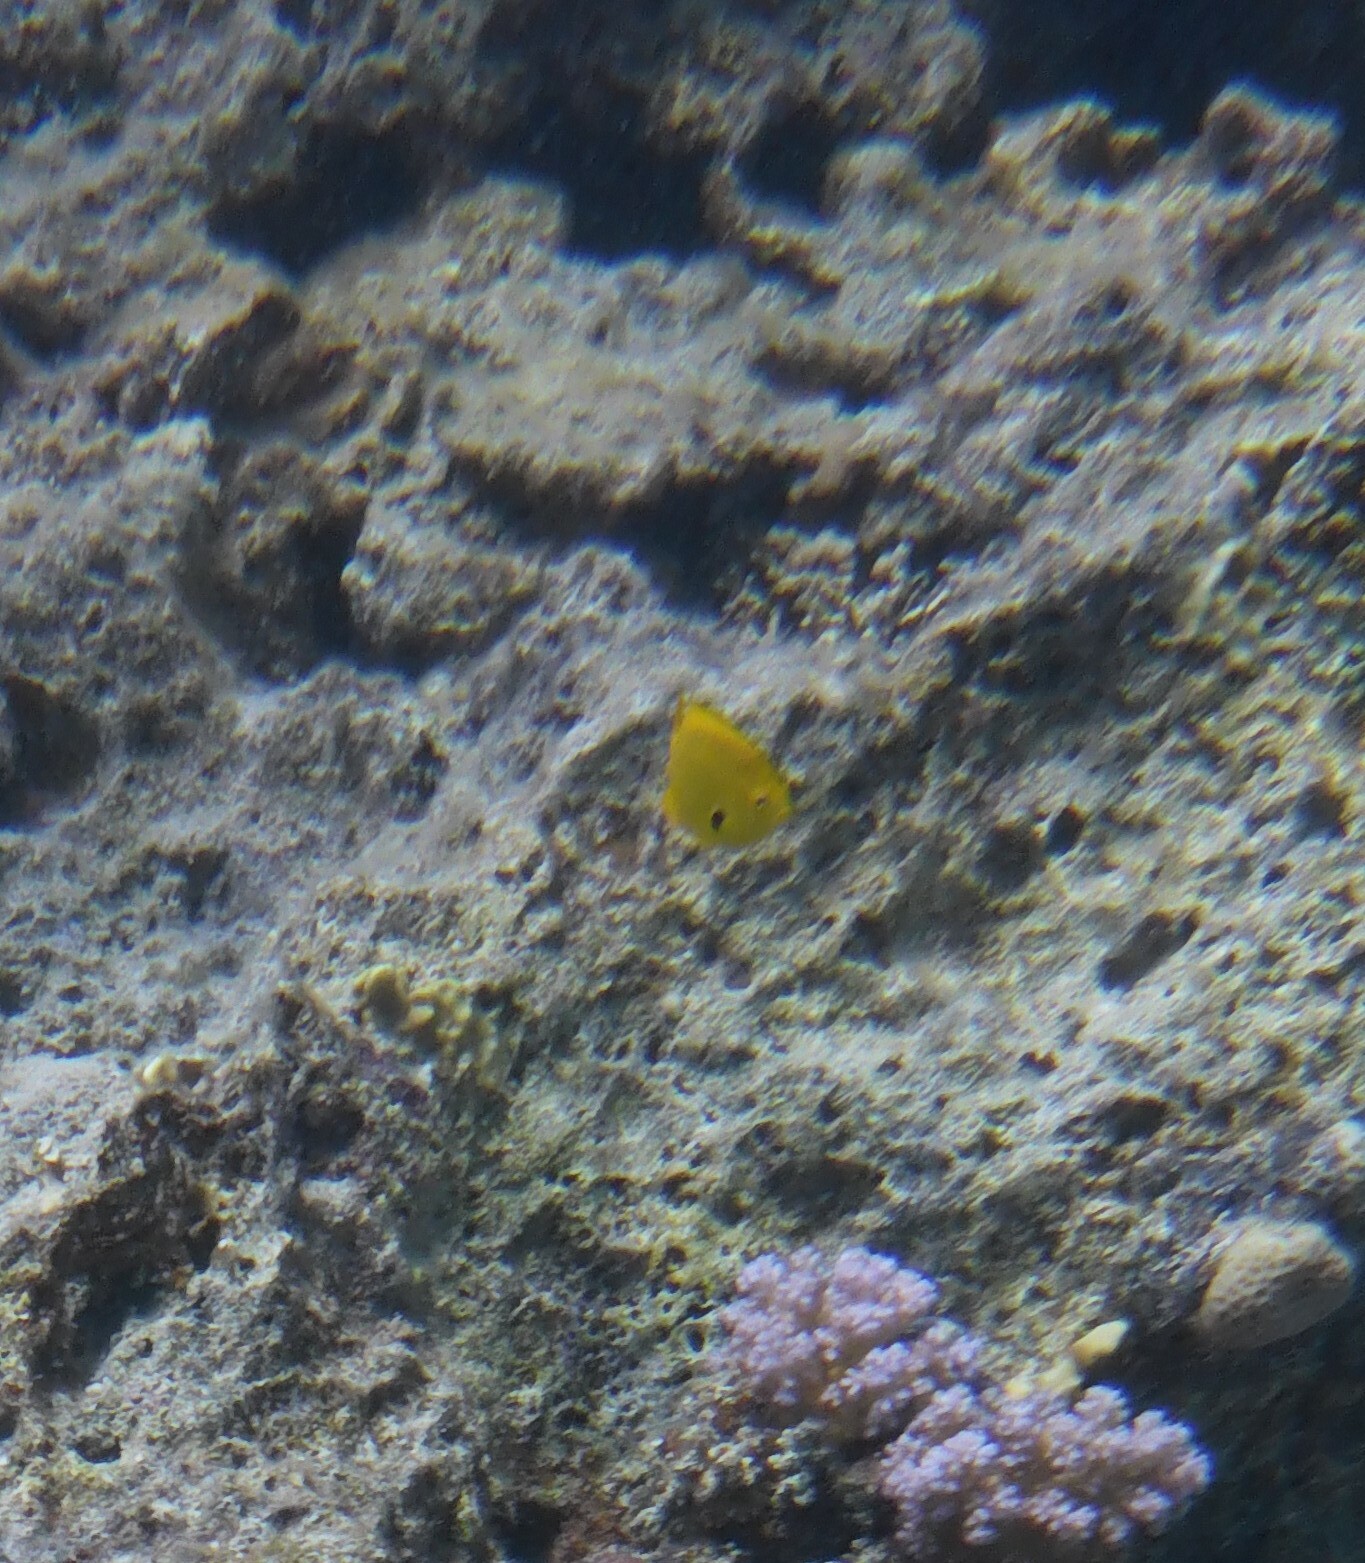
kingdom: Animalia
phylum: Chordata
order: Perciformes
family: Pomacentridae
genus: Pomacentrus
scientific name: Pomacentrus sulfureus
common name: Sulfur damsel
